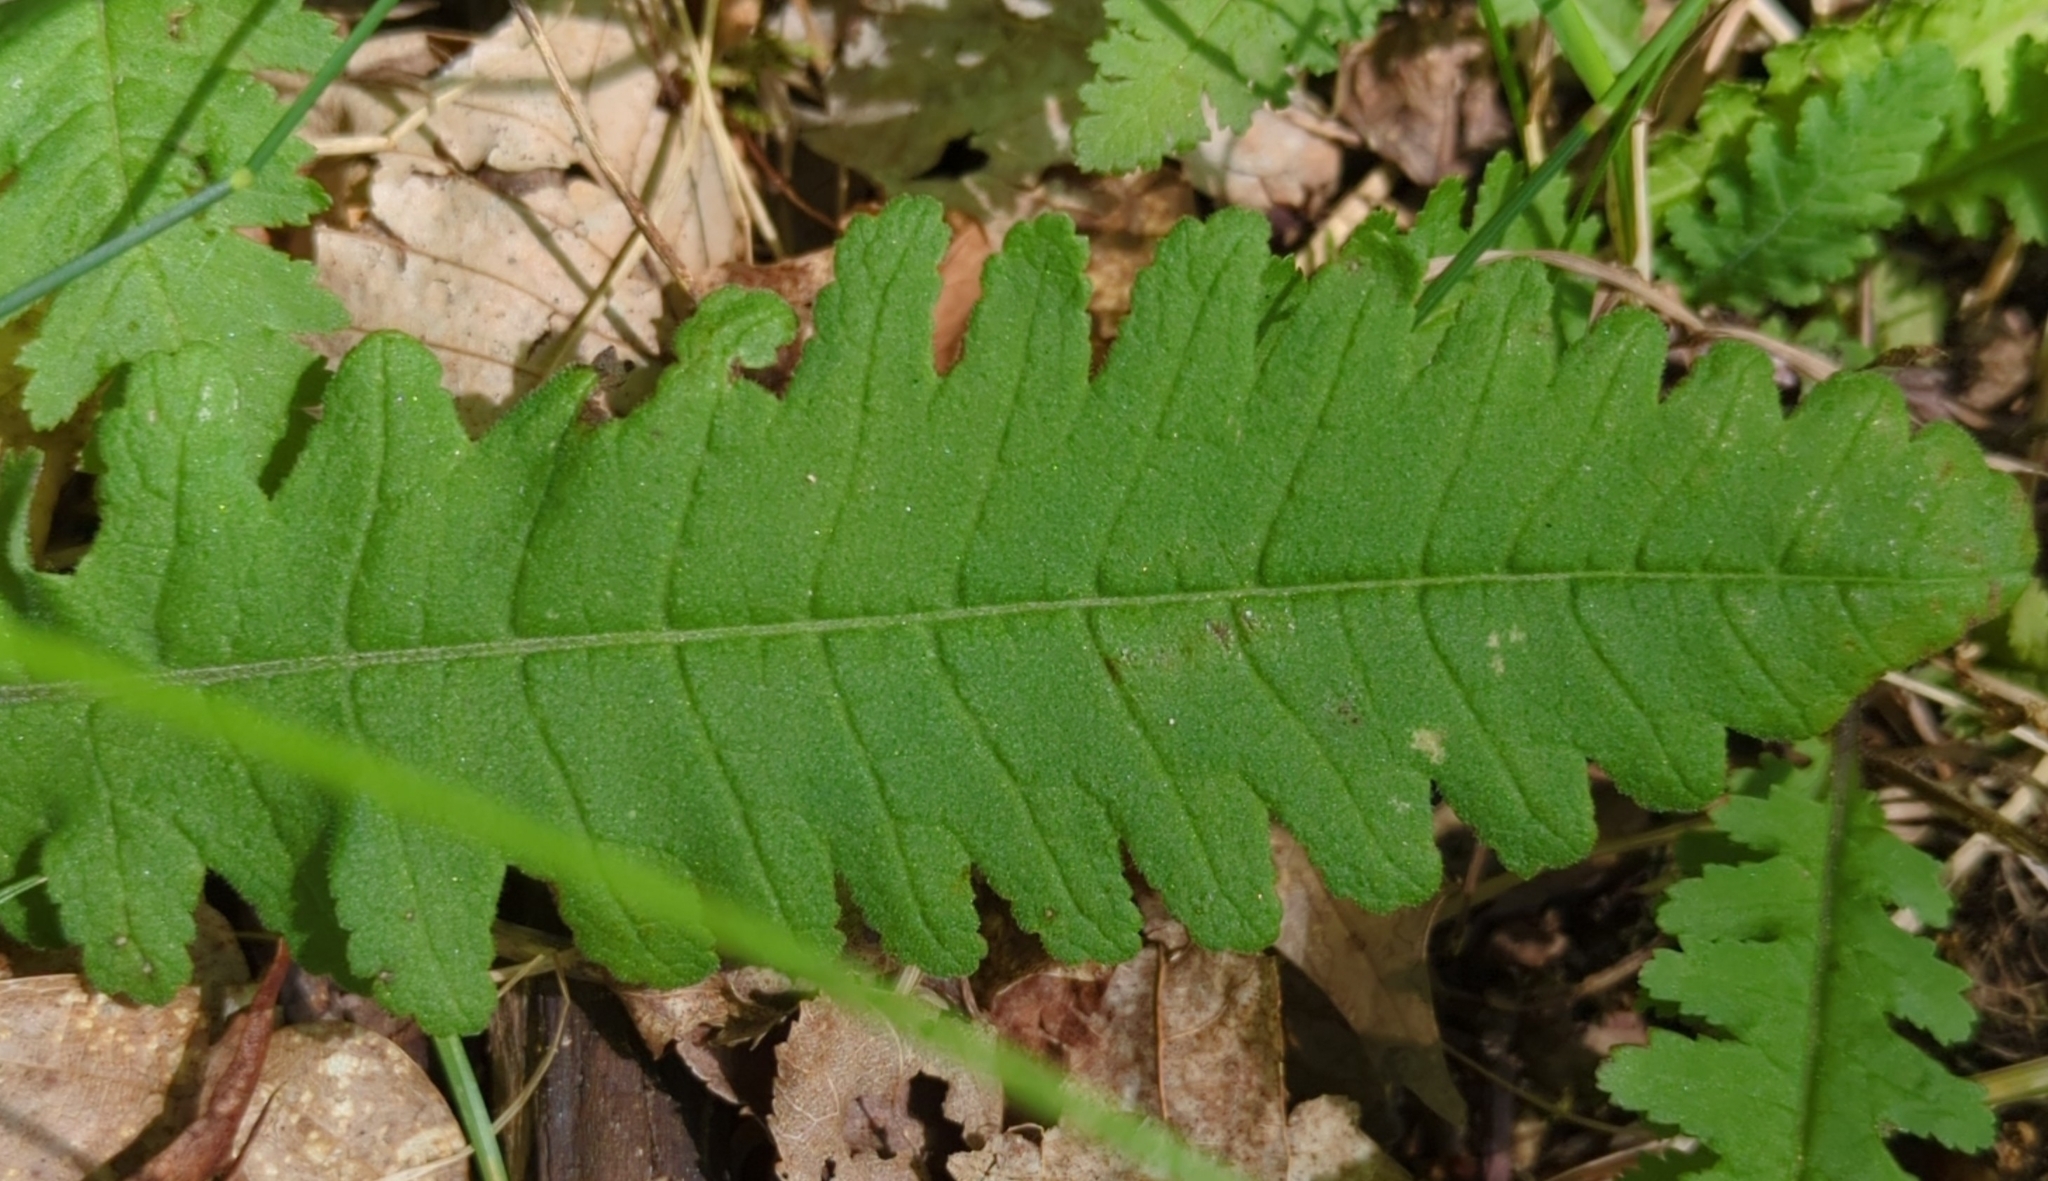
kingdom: Plantae
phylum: Tracheophyta
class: Magnoliopsida
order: Lamiales
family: Orobanchaceae
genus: Pedicularis
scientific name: Pedicularis lanceolata
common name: Swamp lousewort
